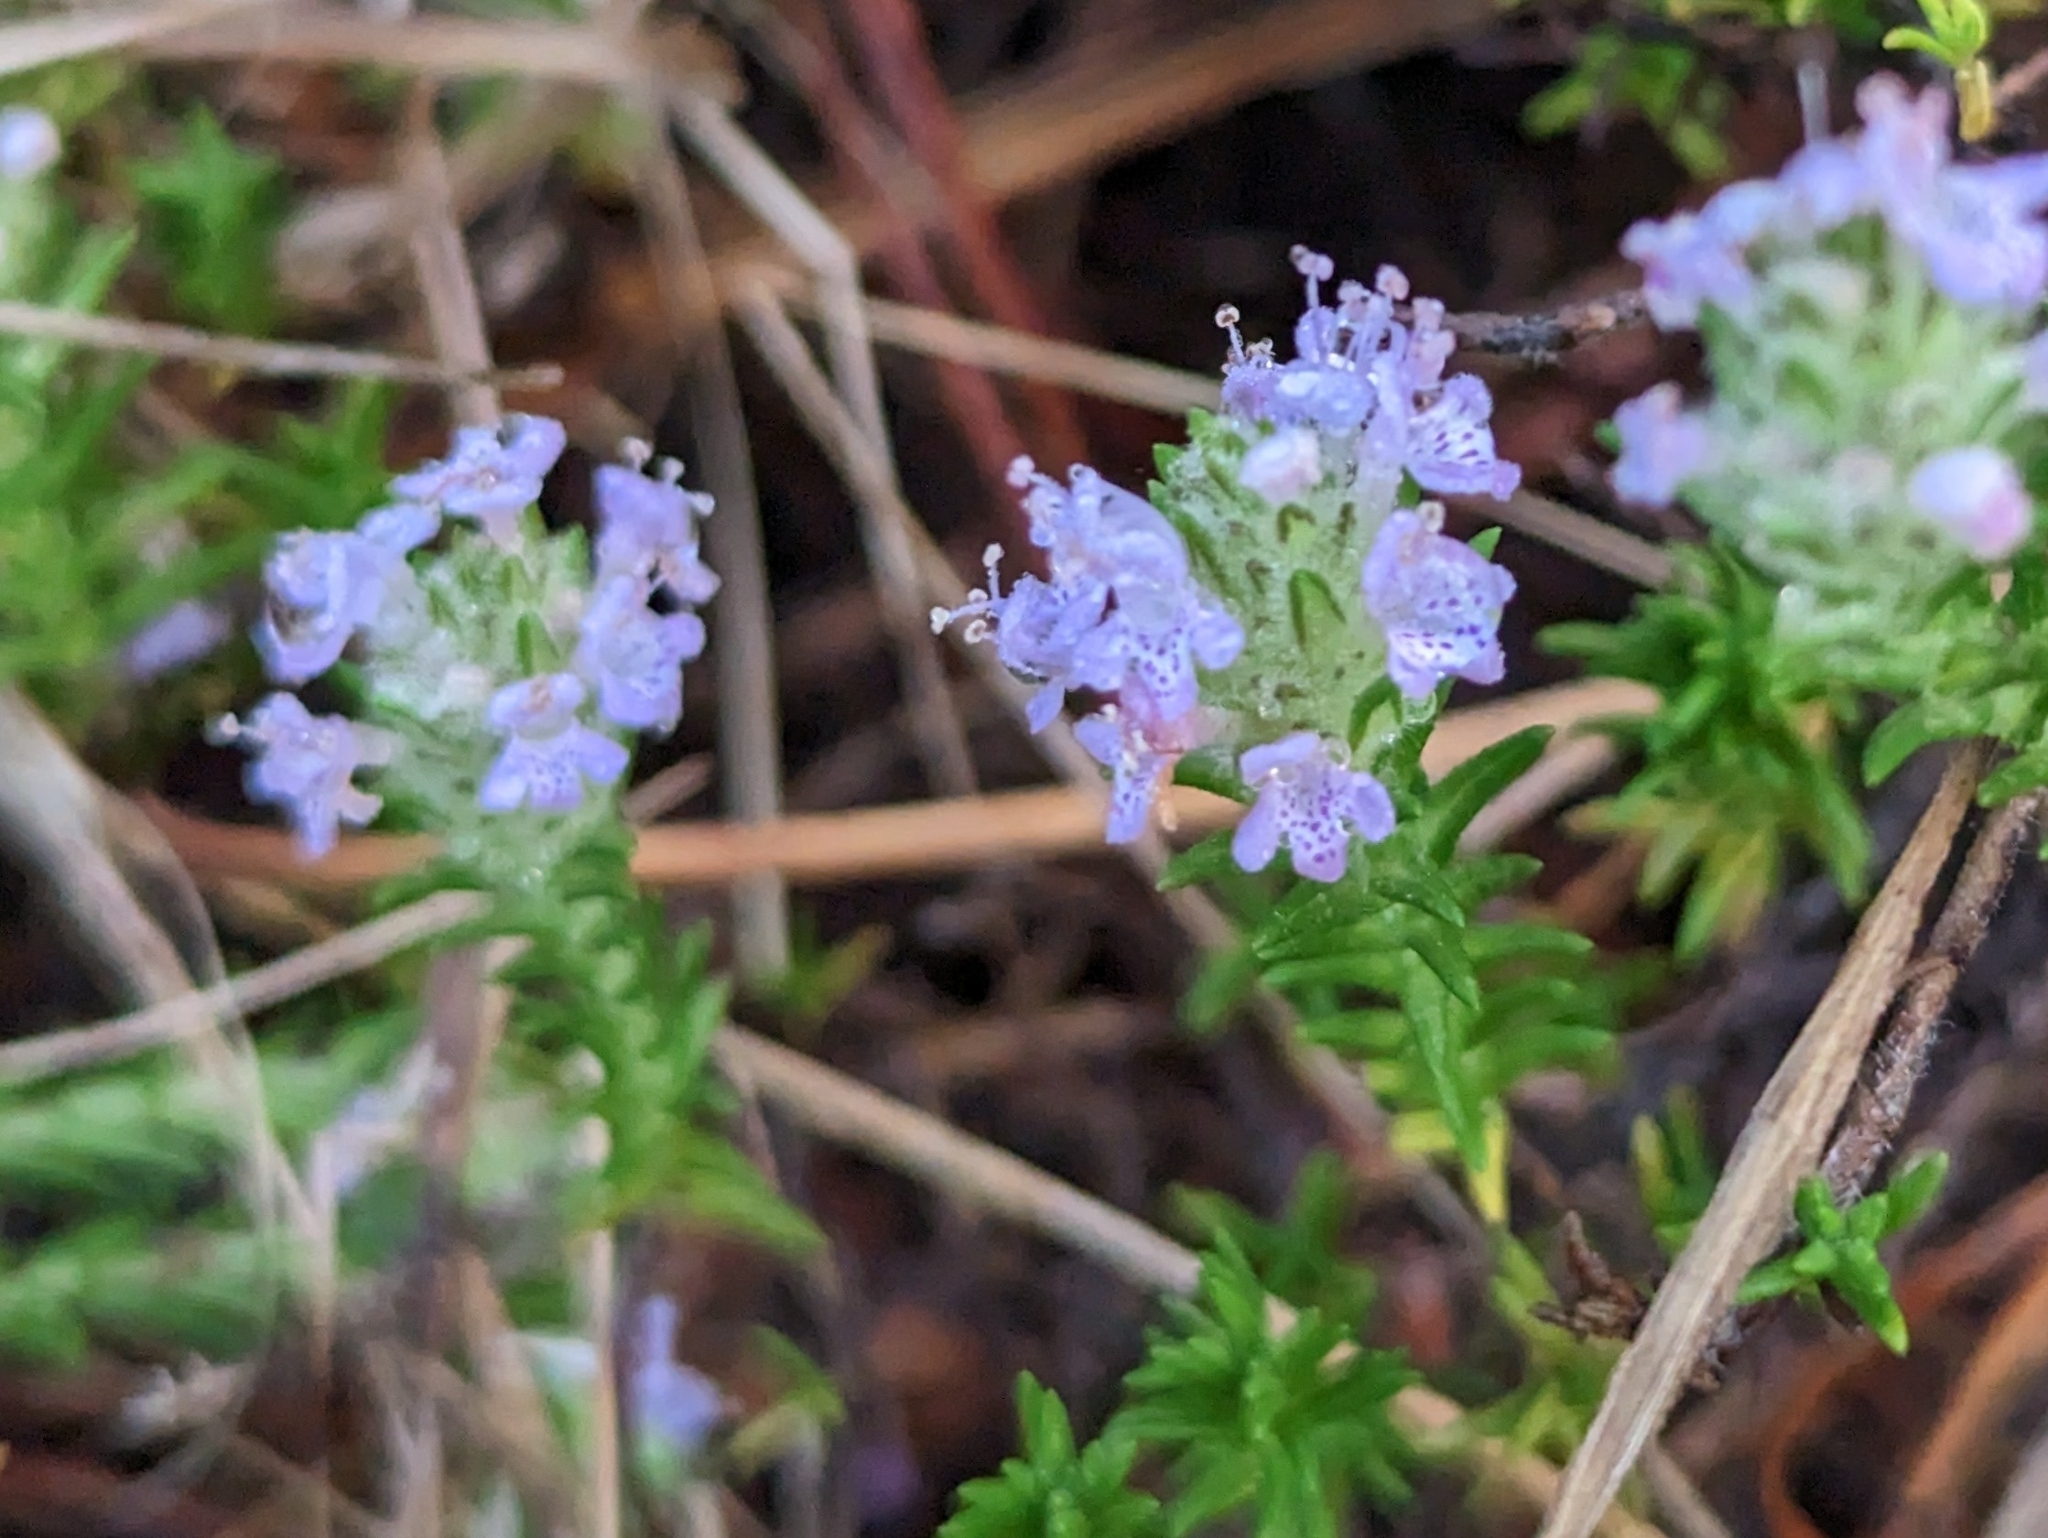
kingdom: Plantae
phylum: Tracheophyta
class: Magnoliopsida
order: Lamiales
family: Lamiaceae
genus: Piloblephis
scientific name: Piloblephis rigida
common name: Wild pennyroyal
